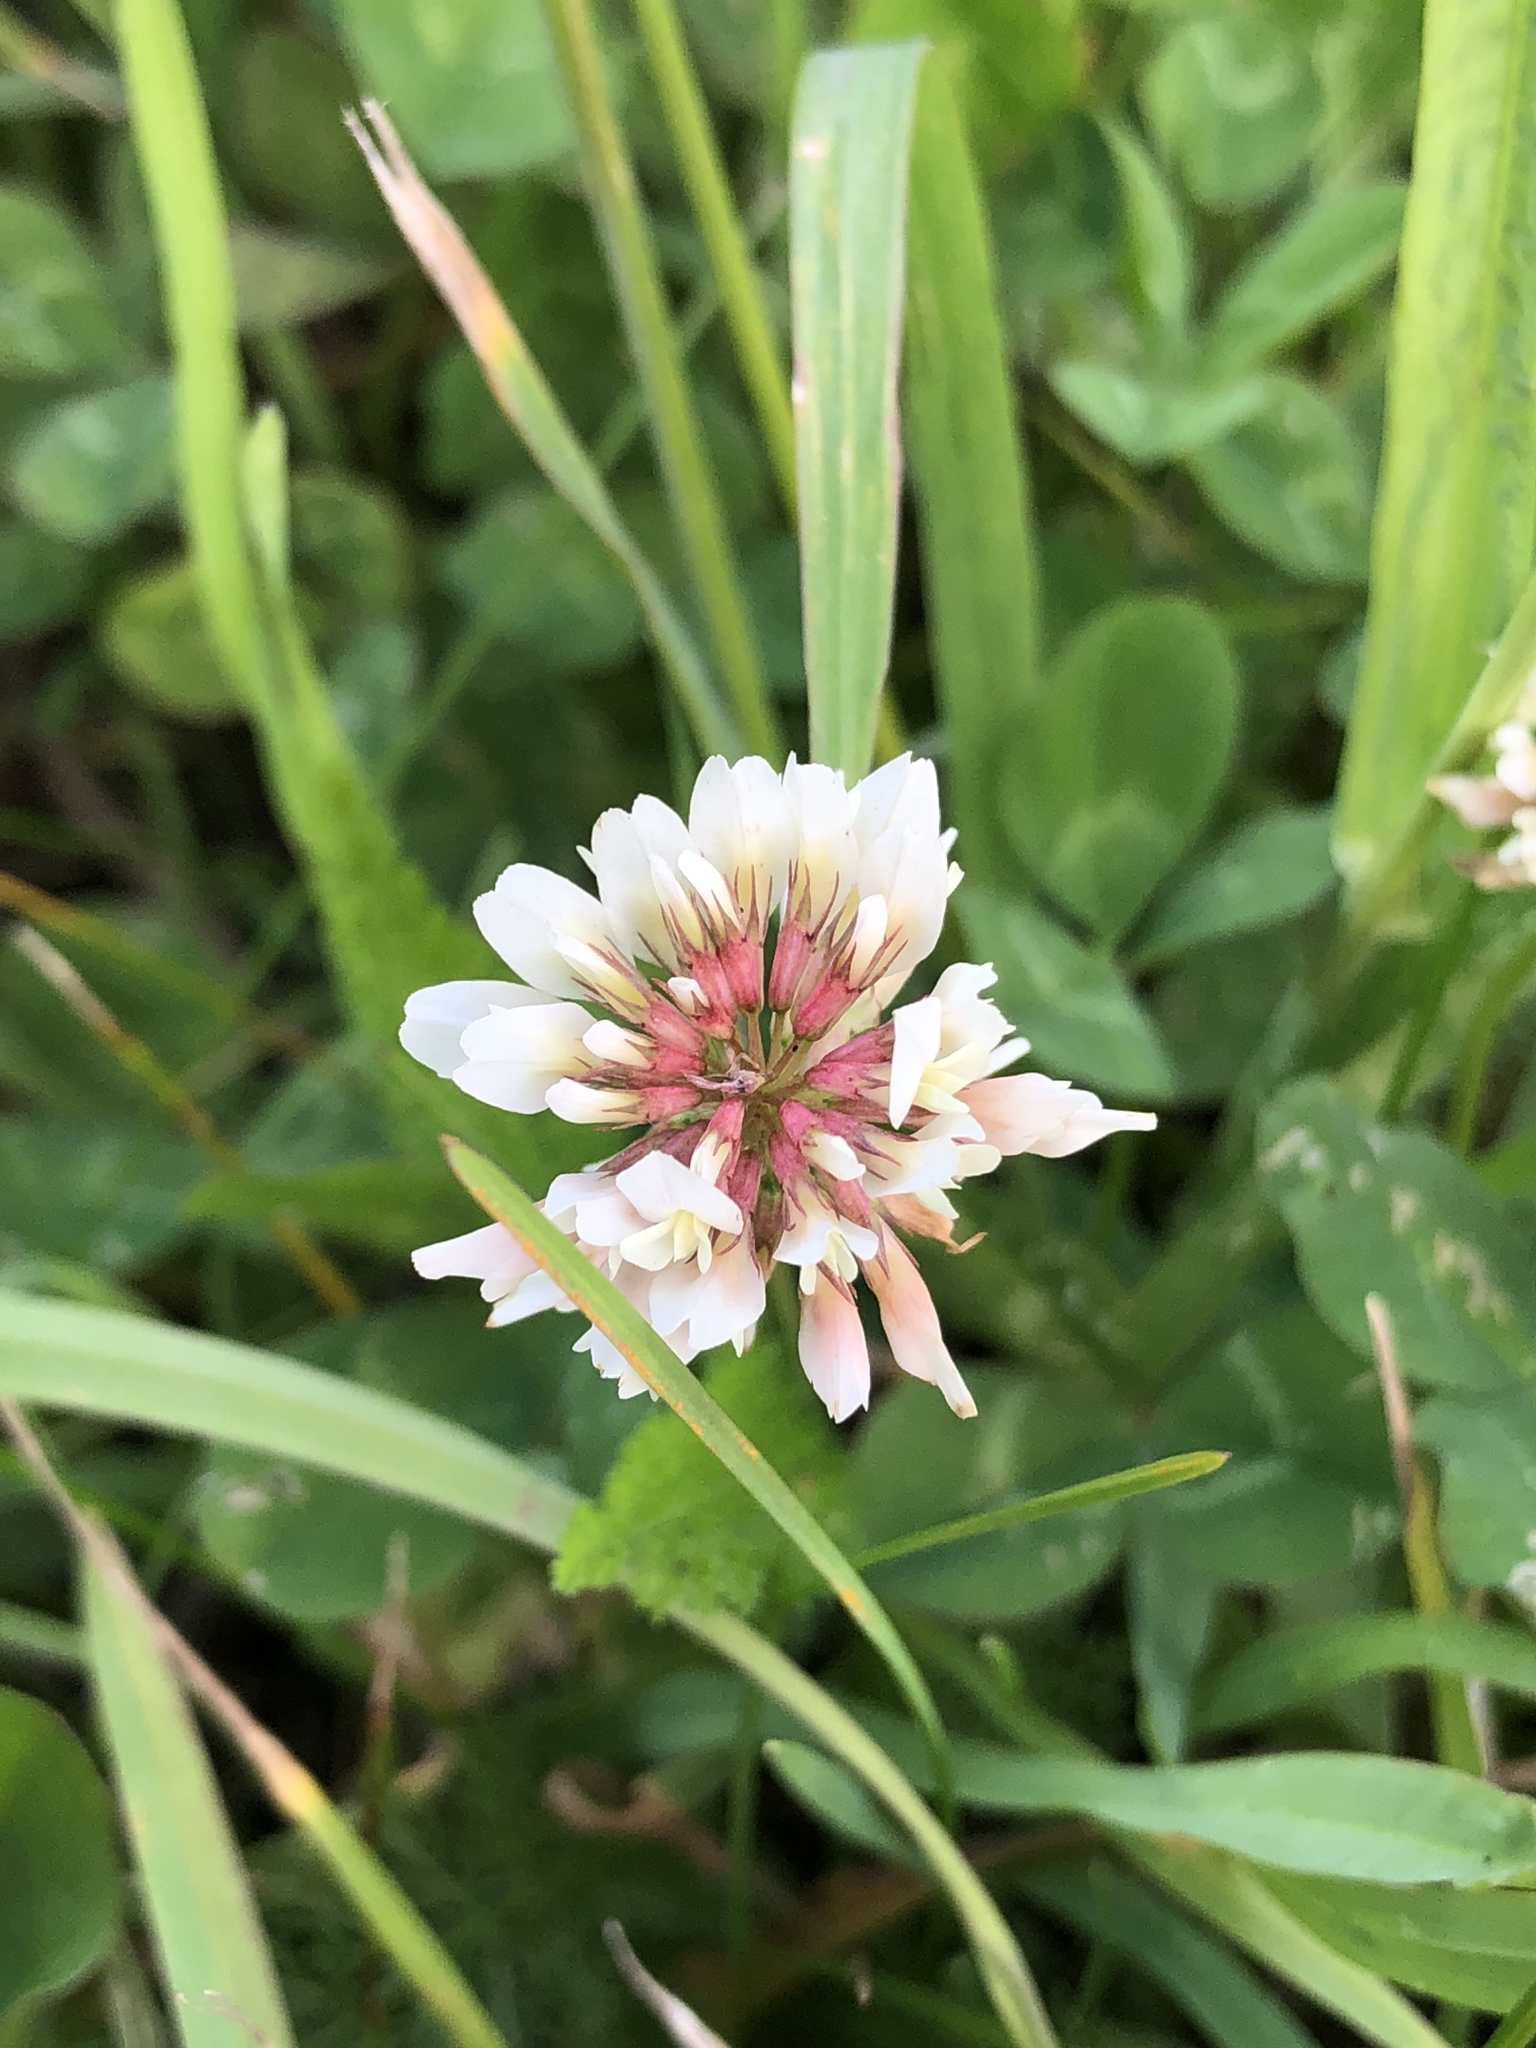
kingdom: Plantae
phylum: Tracheophyta
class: Magnoliopsida
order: Fabales
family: Fabaceae
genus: Trifolium
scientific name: Trifolium repens
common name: White clover
